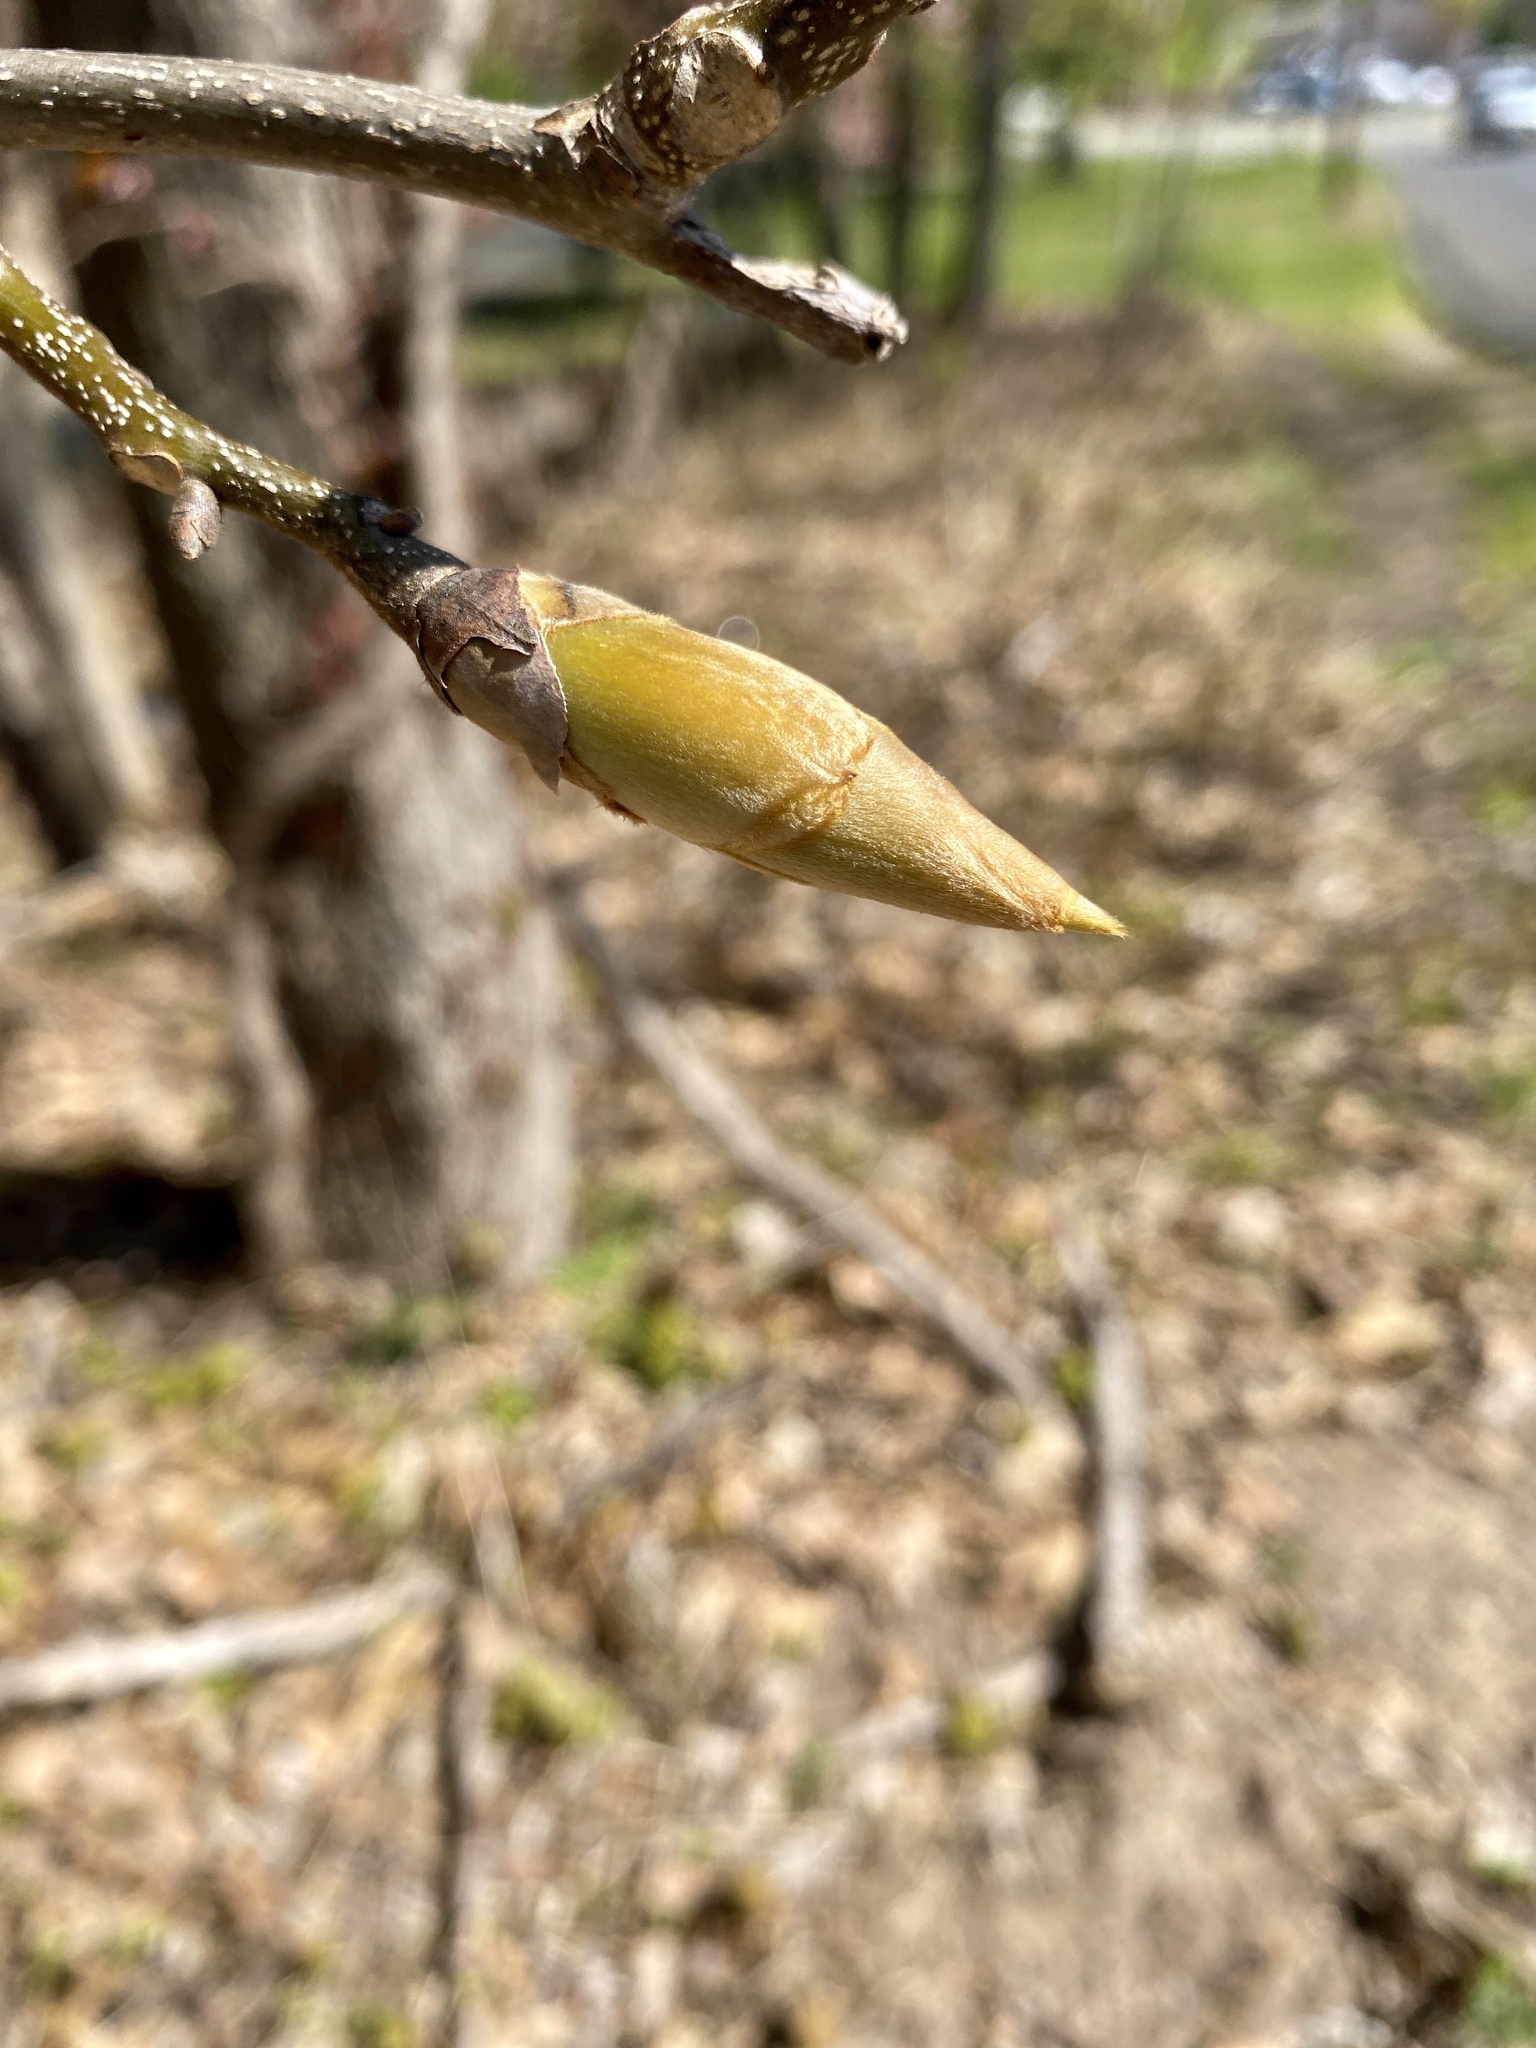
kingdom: Plantae
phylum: Tracheophyta
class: Magnoliopsida
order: Fagales
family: Juglandaceae
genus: Carya
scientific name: Carya ovata
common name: Shagbark hickory
